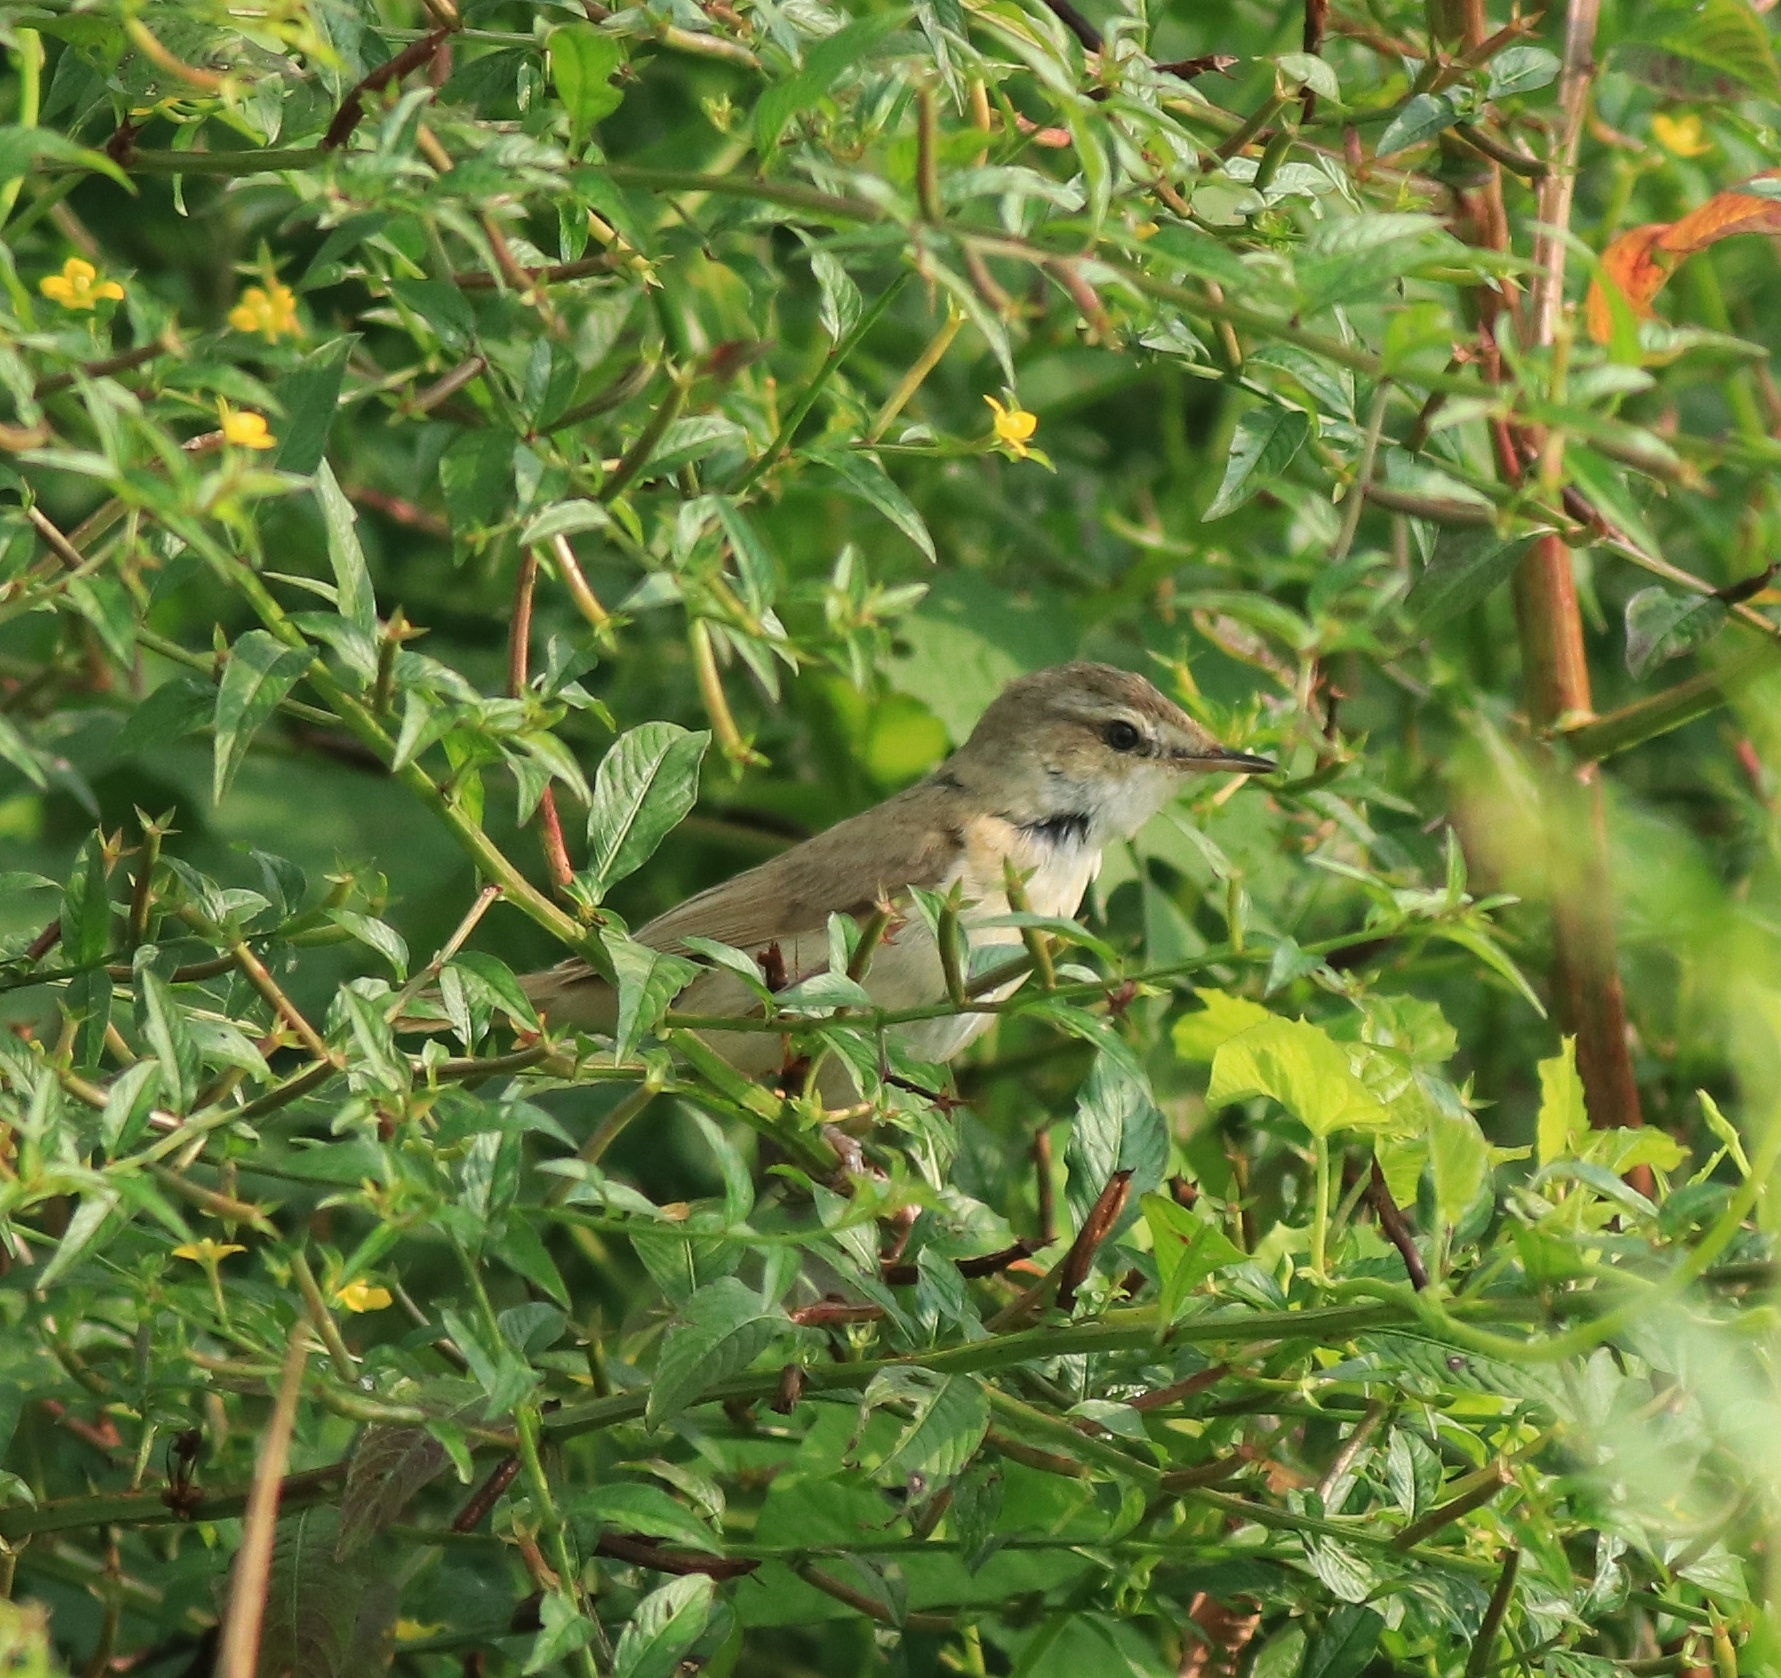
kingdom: Animalia
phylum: Chordata
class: Aves
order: Passeriformes
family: Acrocephalidae
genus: Acrocephalus
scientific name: Acrocephalus agricola
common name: Paddyfield warbler
